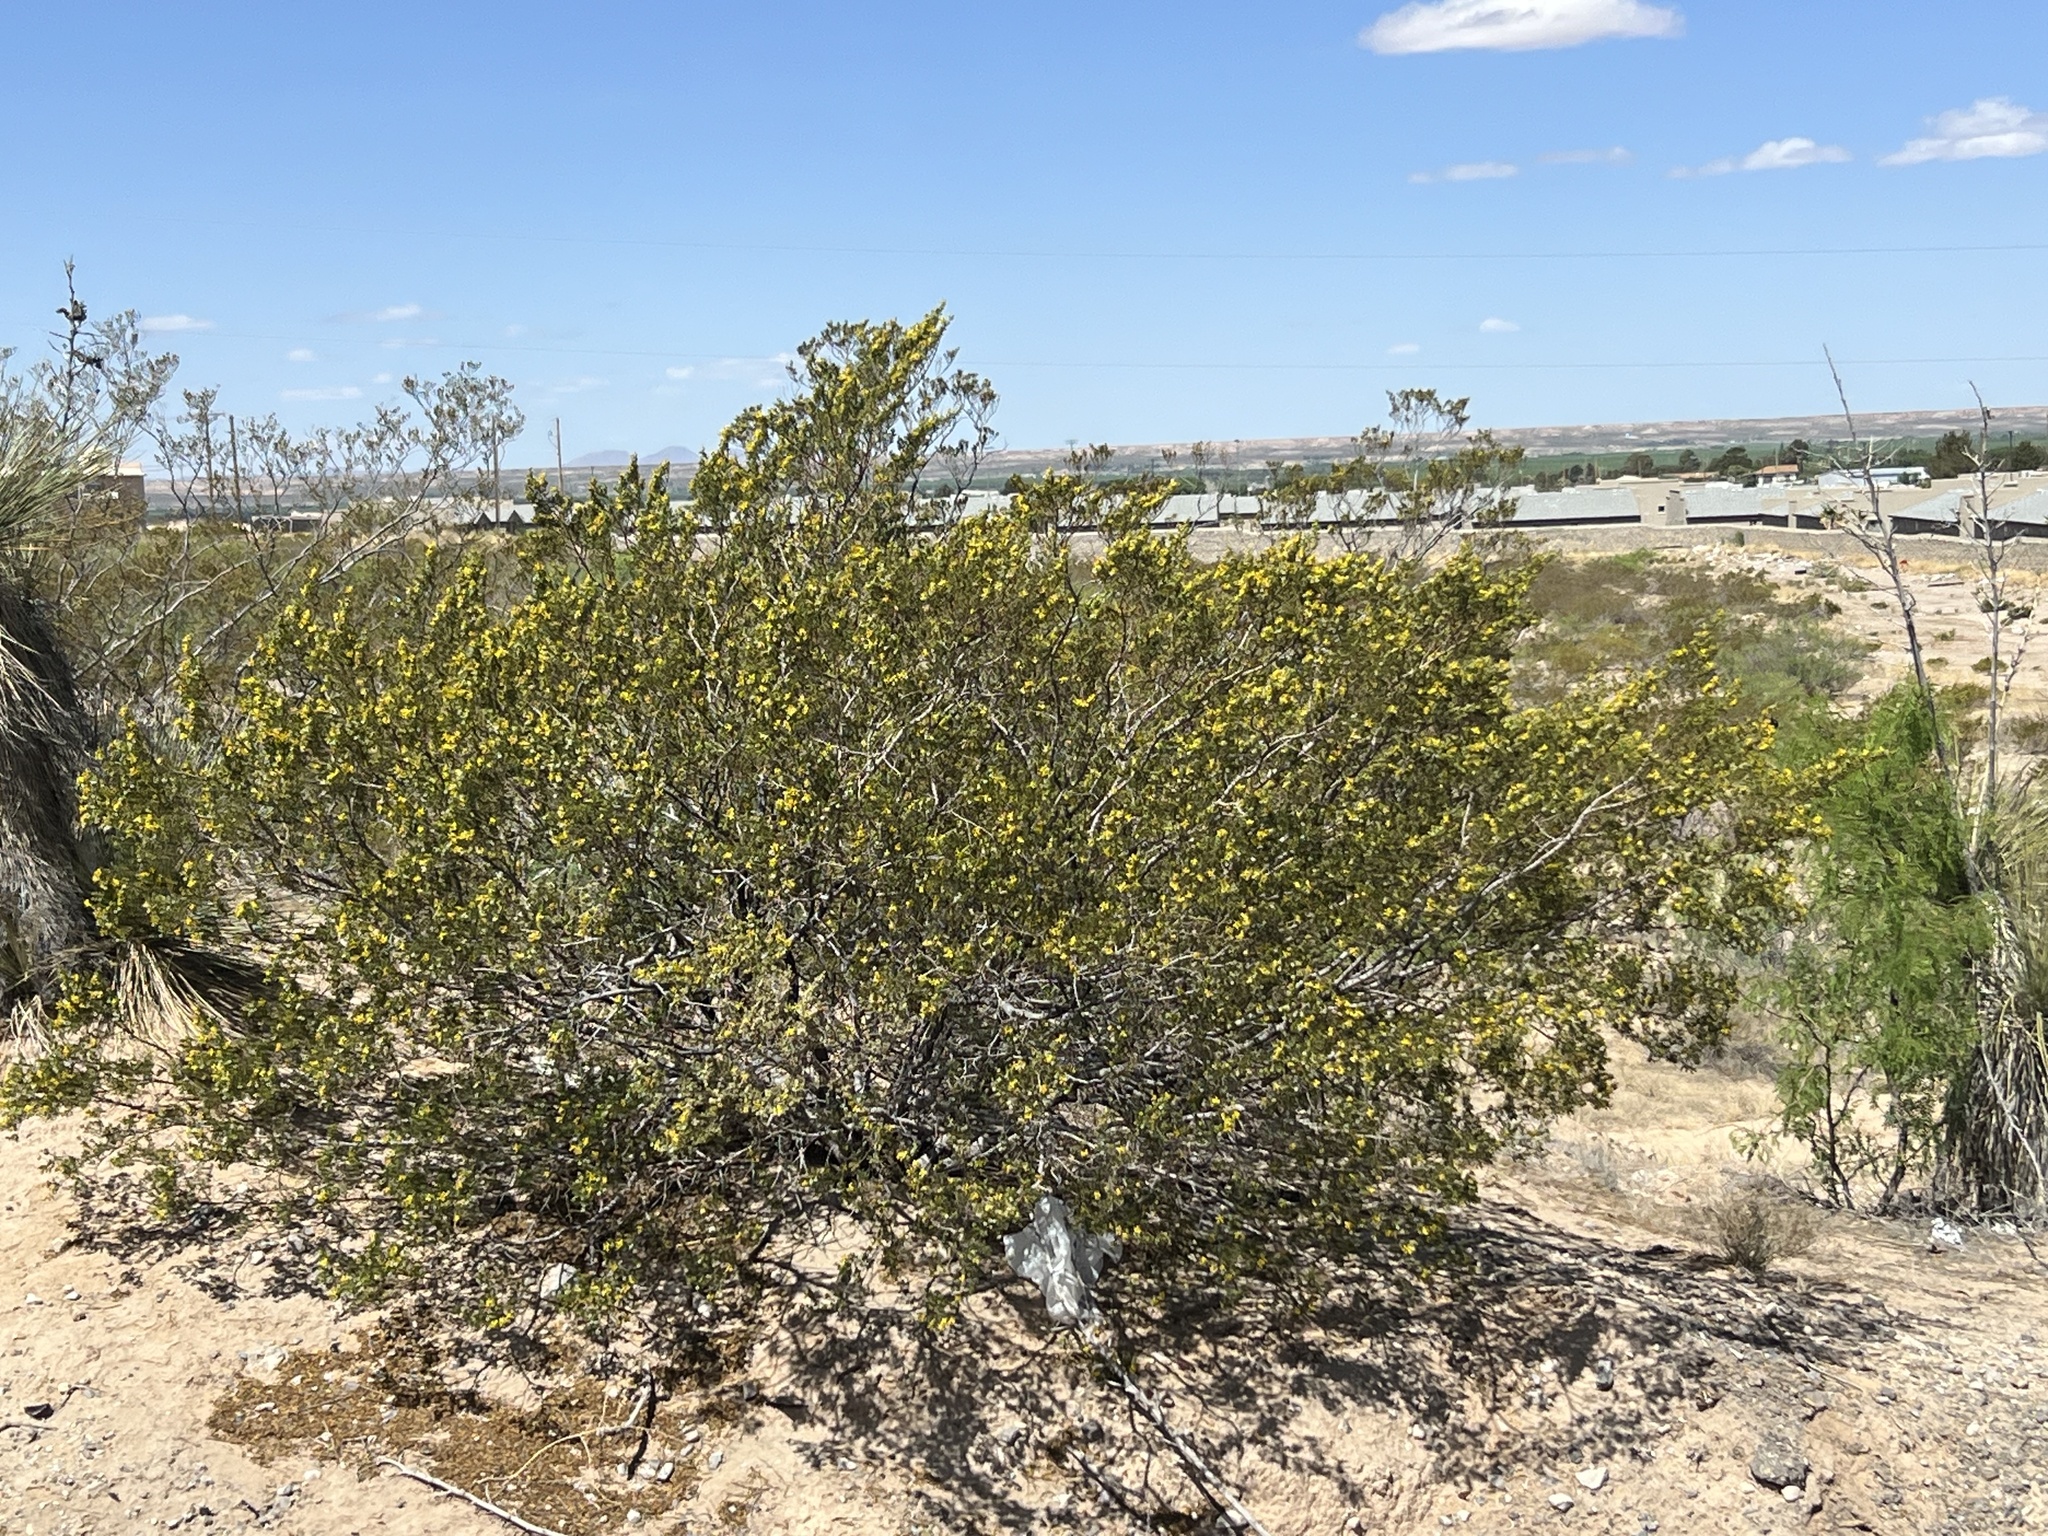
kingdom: Plantae
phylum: Tracheophyta
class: Magnoliopsida
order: Zygophyllales
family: Zygophyllaceae
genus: Larrea
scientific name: Larrea tridentata
